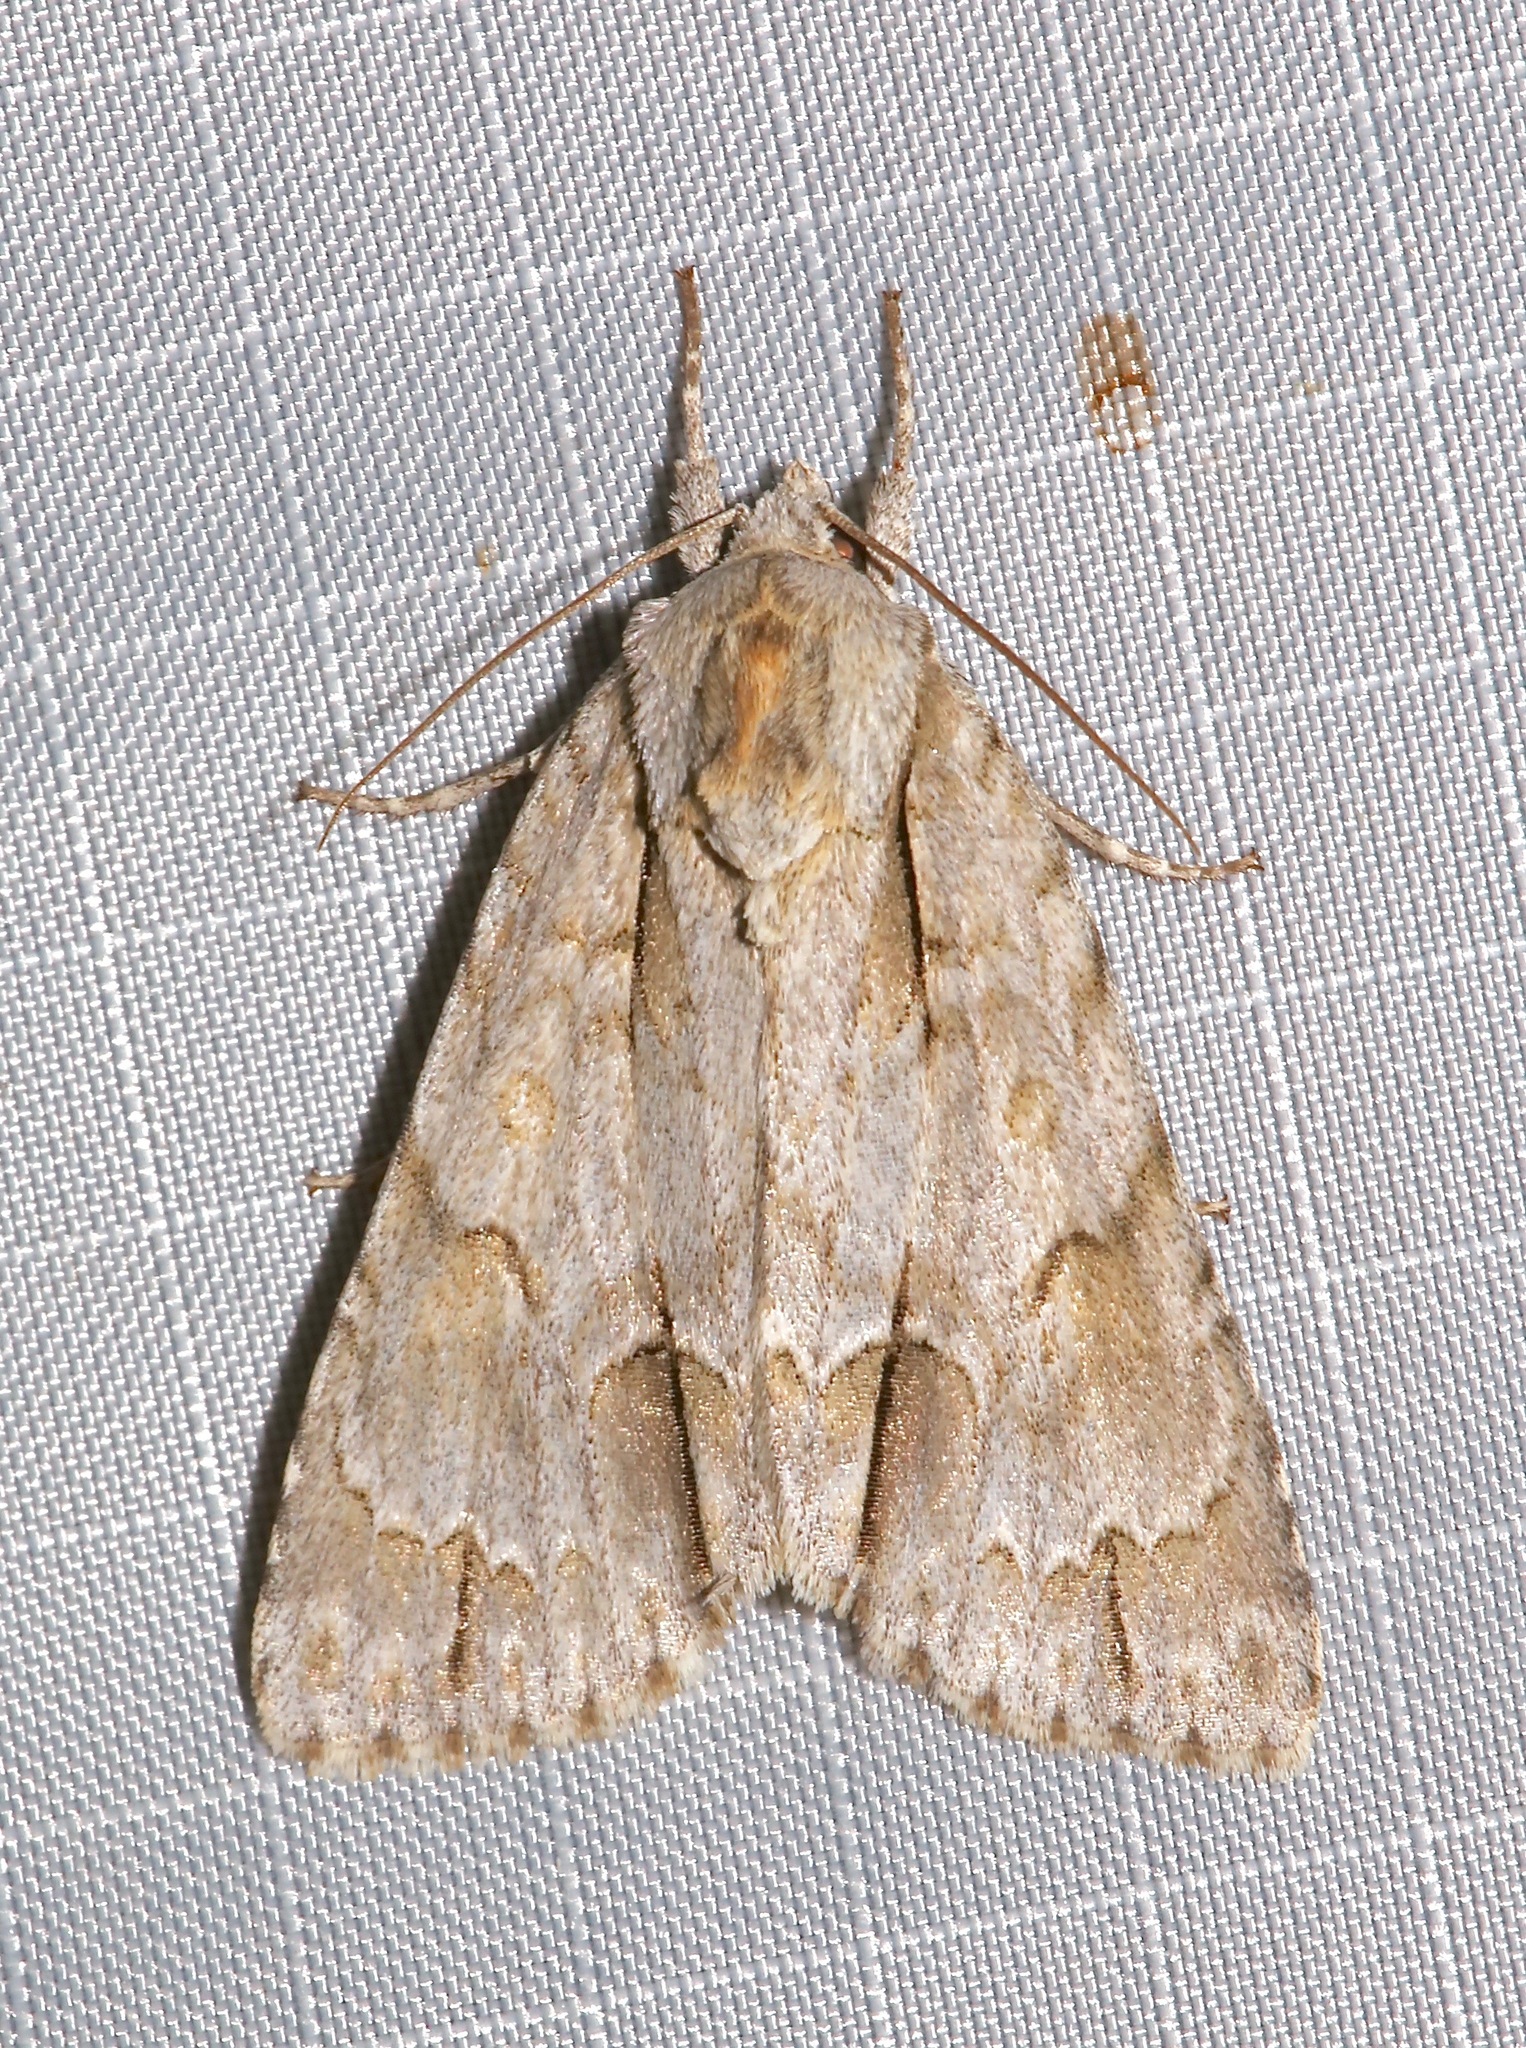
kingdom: Animalia
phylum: Arthropoda
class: Insecta
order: Lepidoptera
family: Noctuidae
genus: Acronicta
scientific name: Acronicta morula
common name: Ochre dagger
